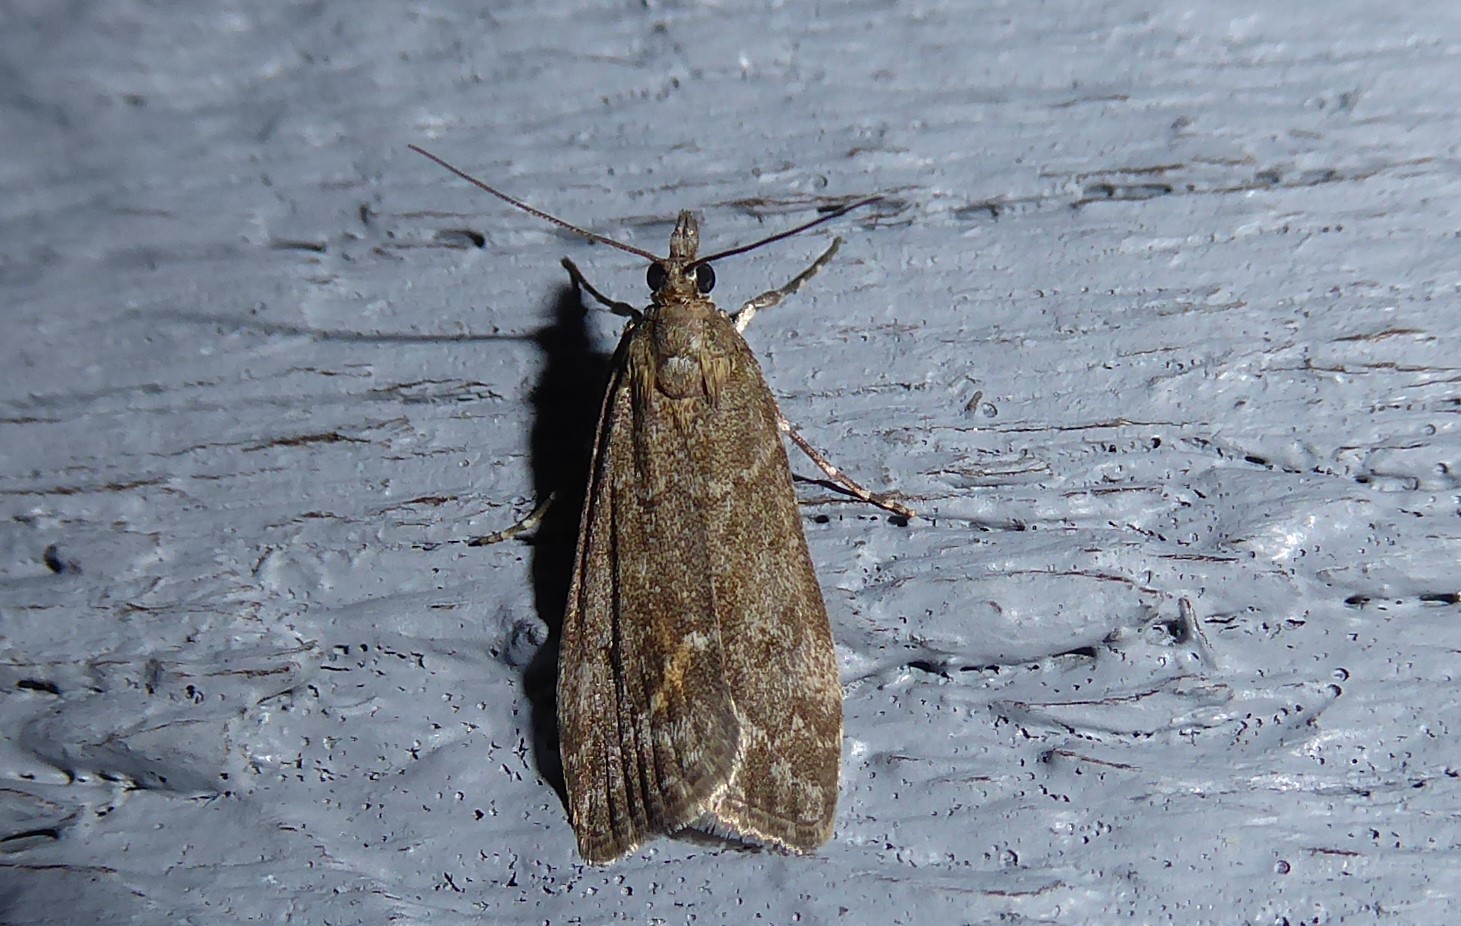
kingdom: Animalia
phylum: Arthropoda
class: Insecta
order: Lepidoptera
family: Crambidae
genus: Eudonia
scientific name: Eudonia submarginalis
